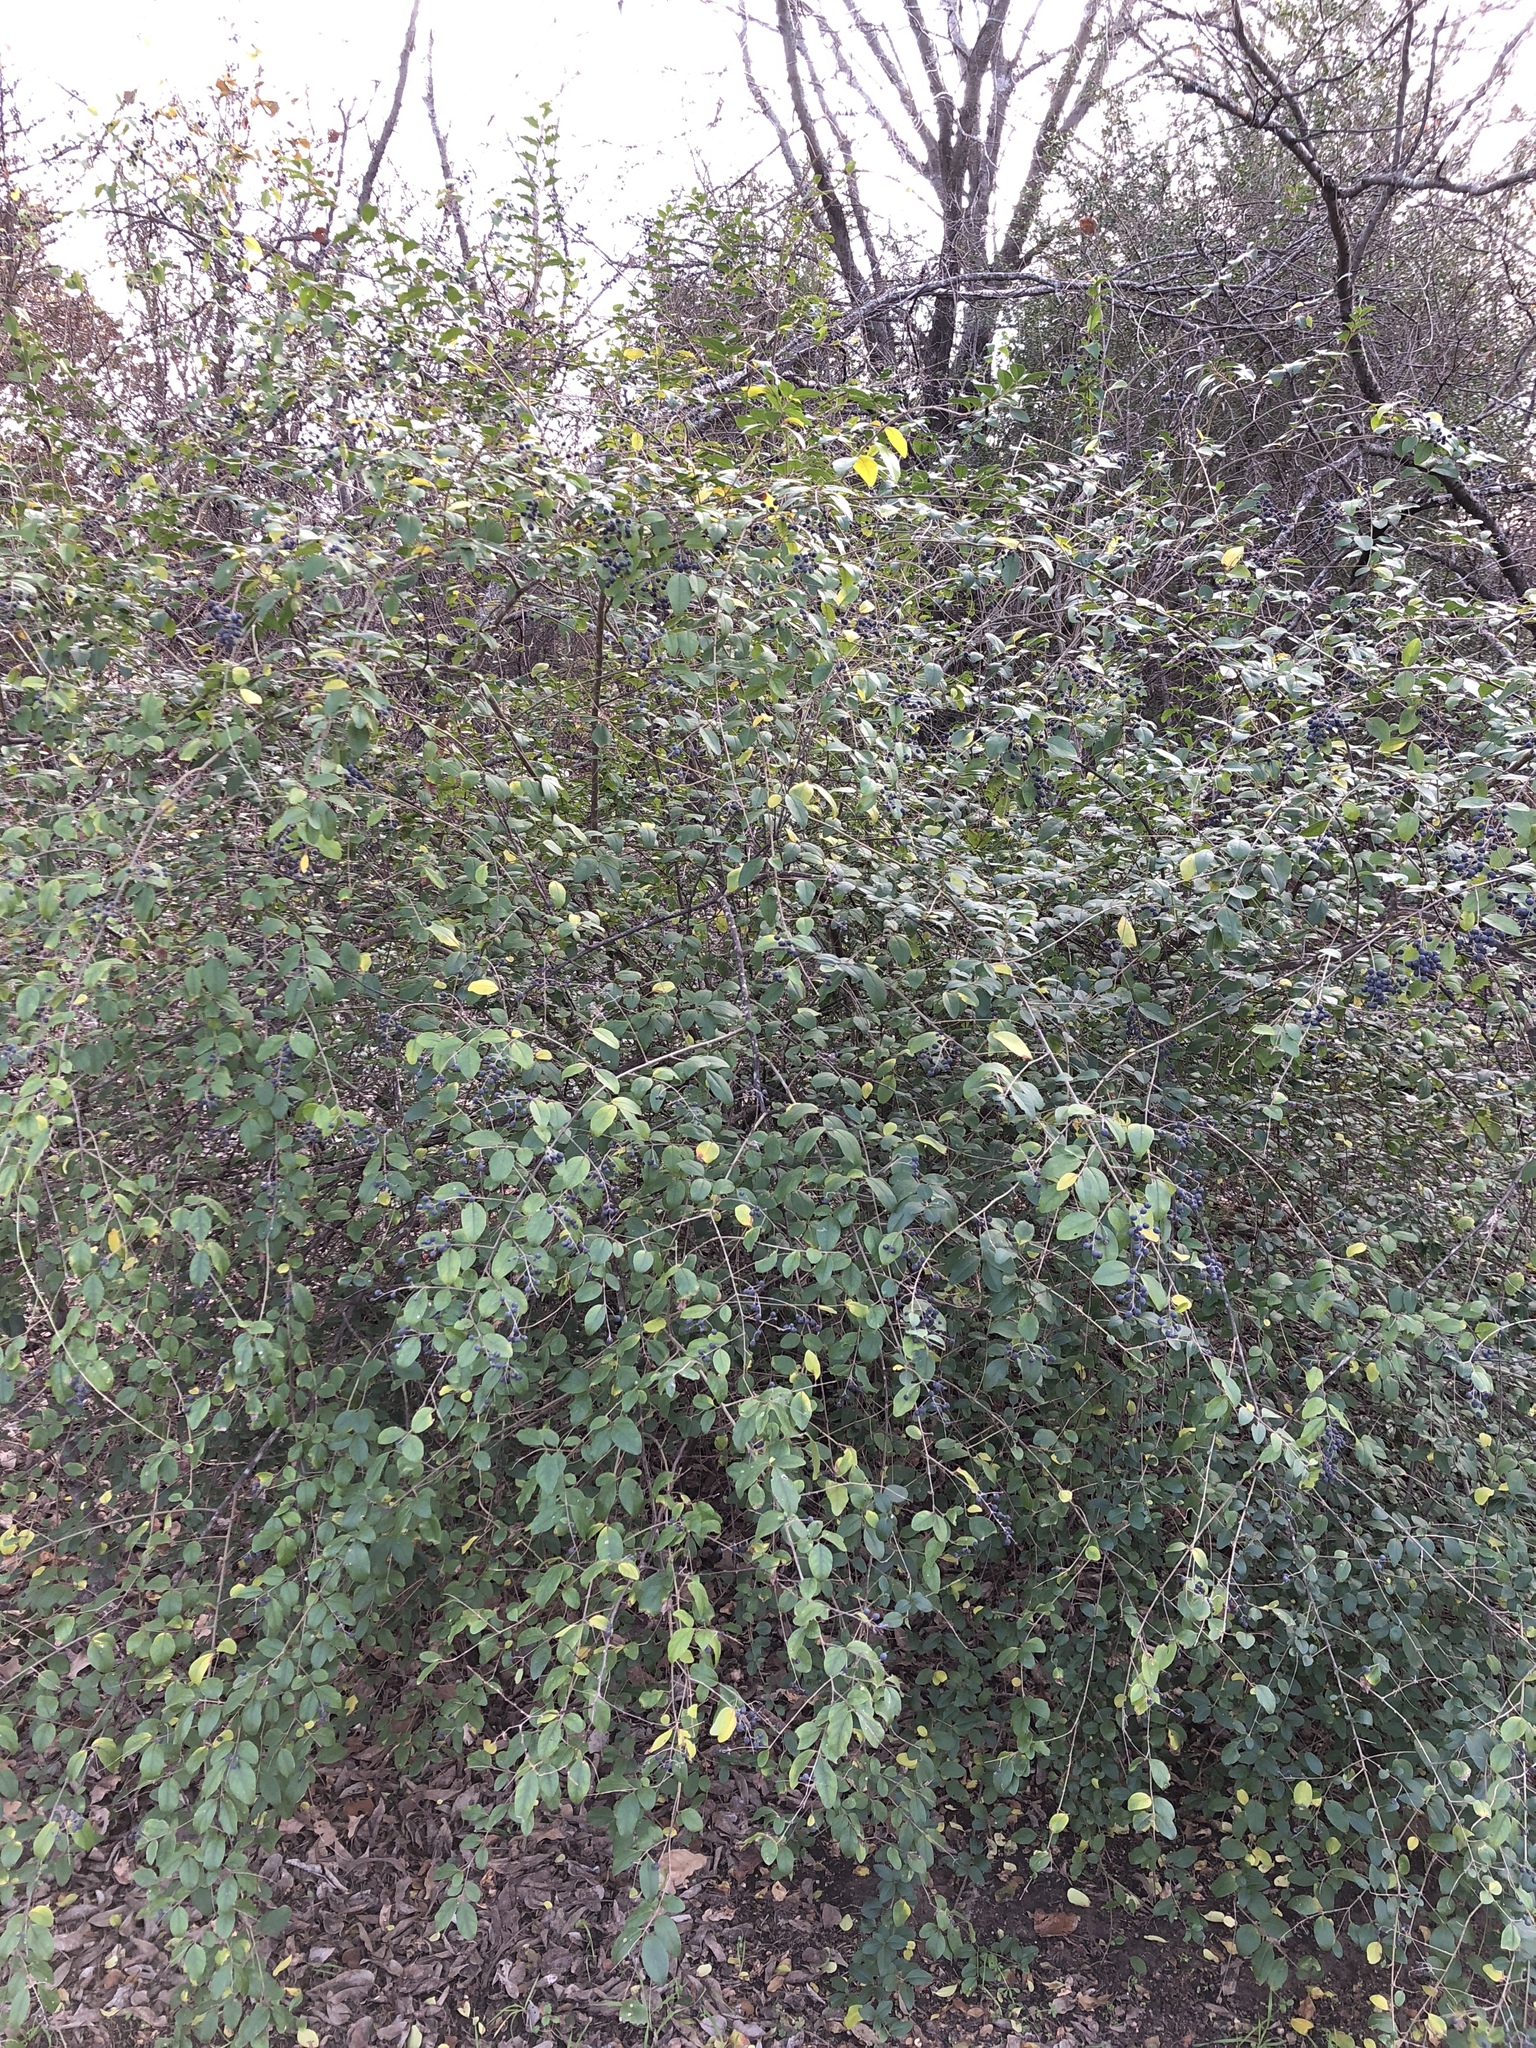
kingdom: Plantae
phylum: Tracheophyta
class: Magnoliopsida
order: Lamiales
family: Oleaceae
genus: Ligustrum
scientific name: Ligustrum sinense
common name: Chinese privet
